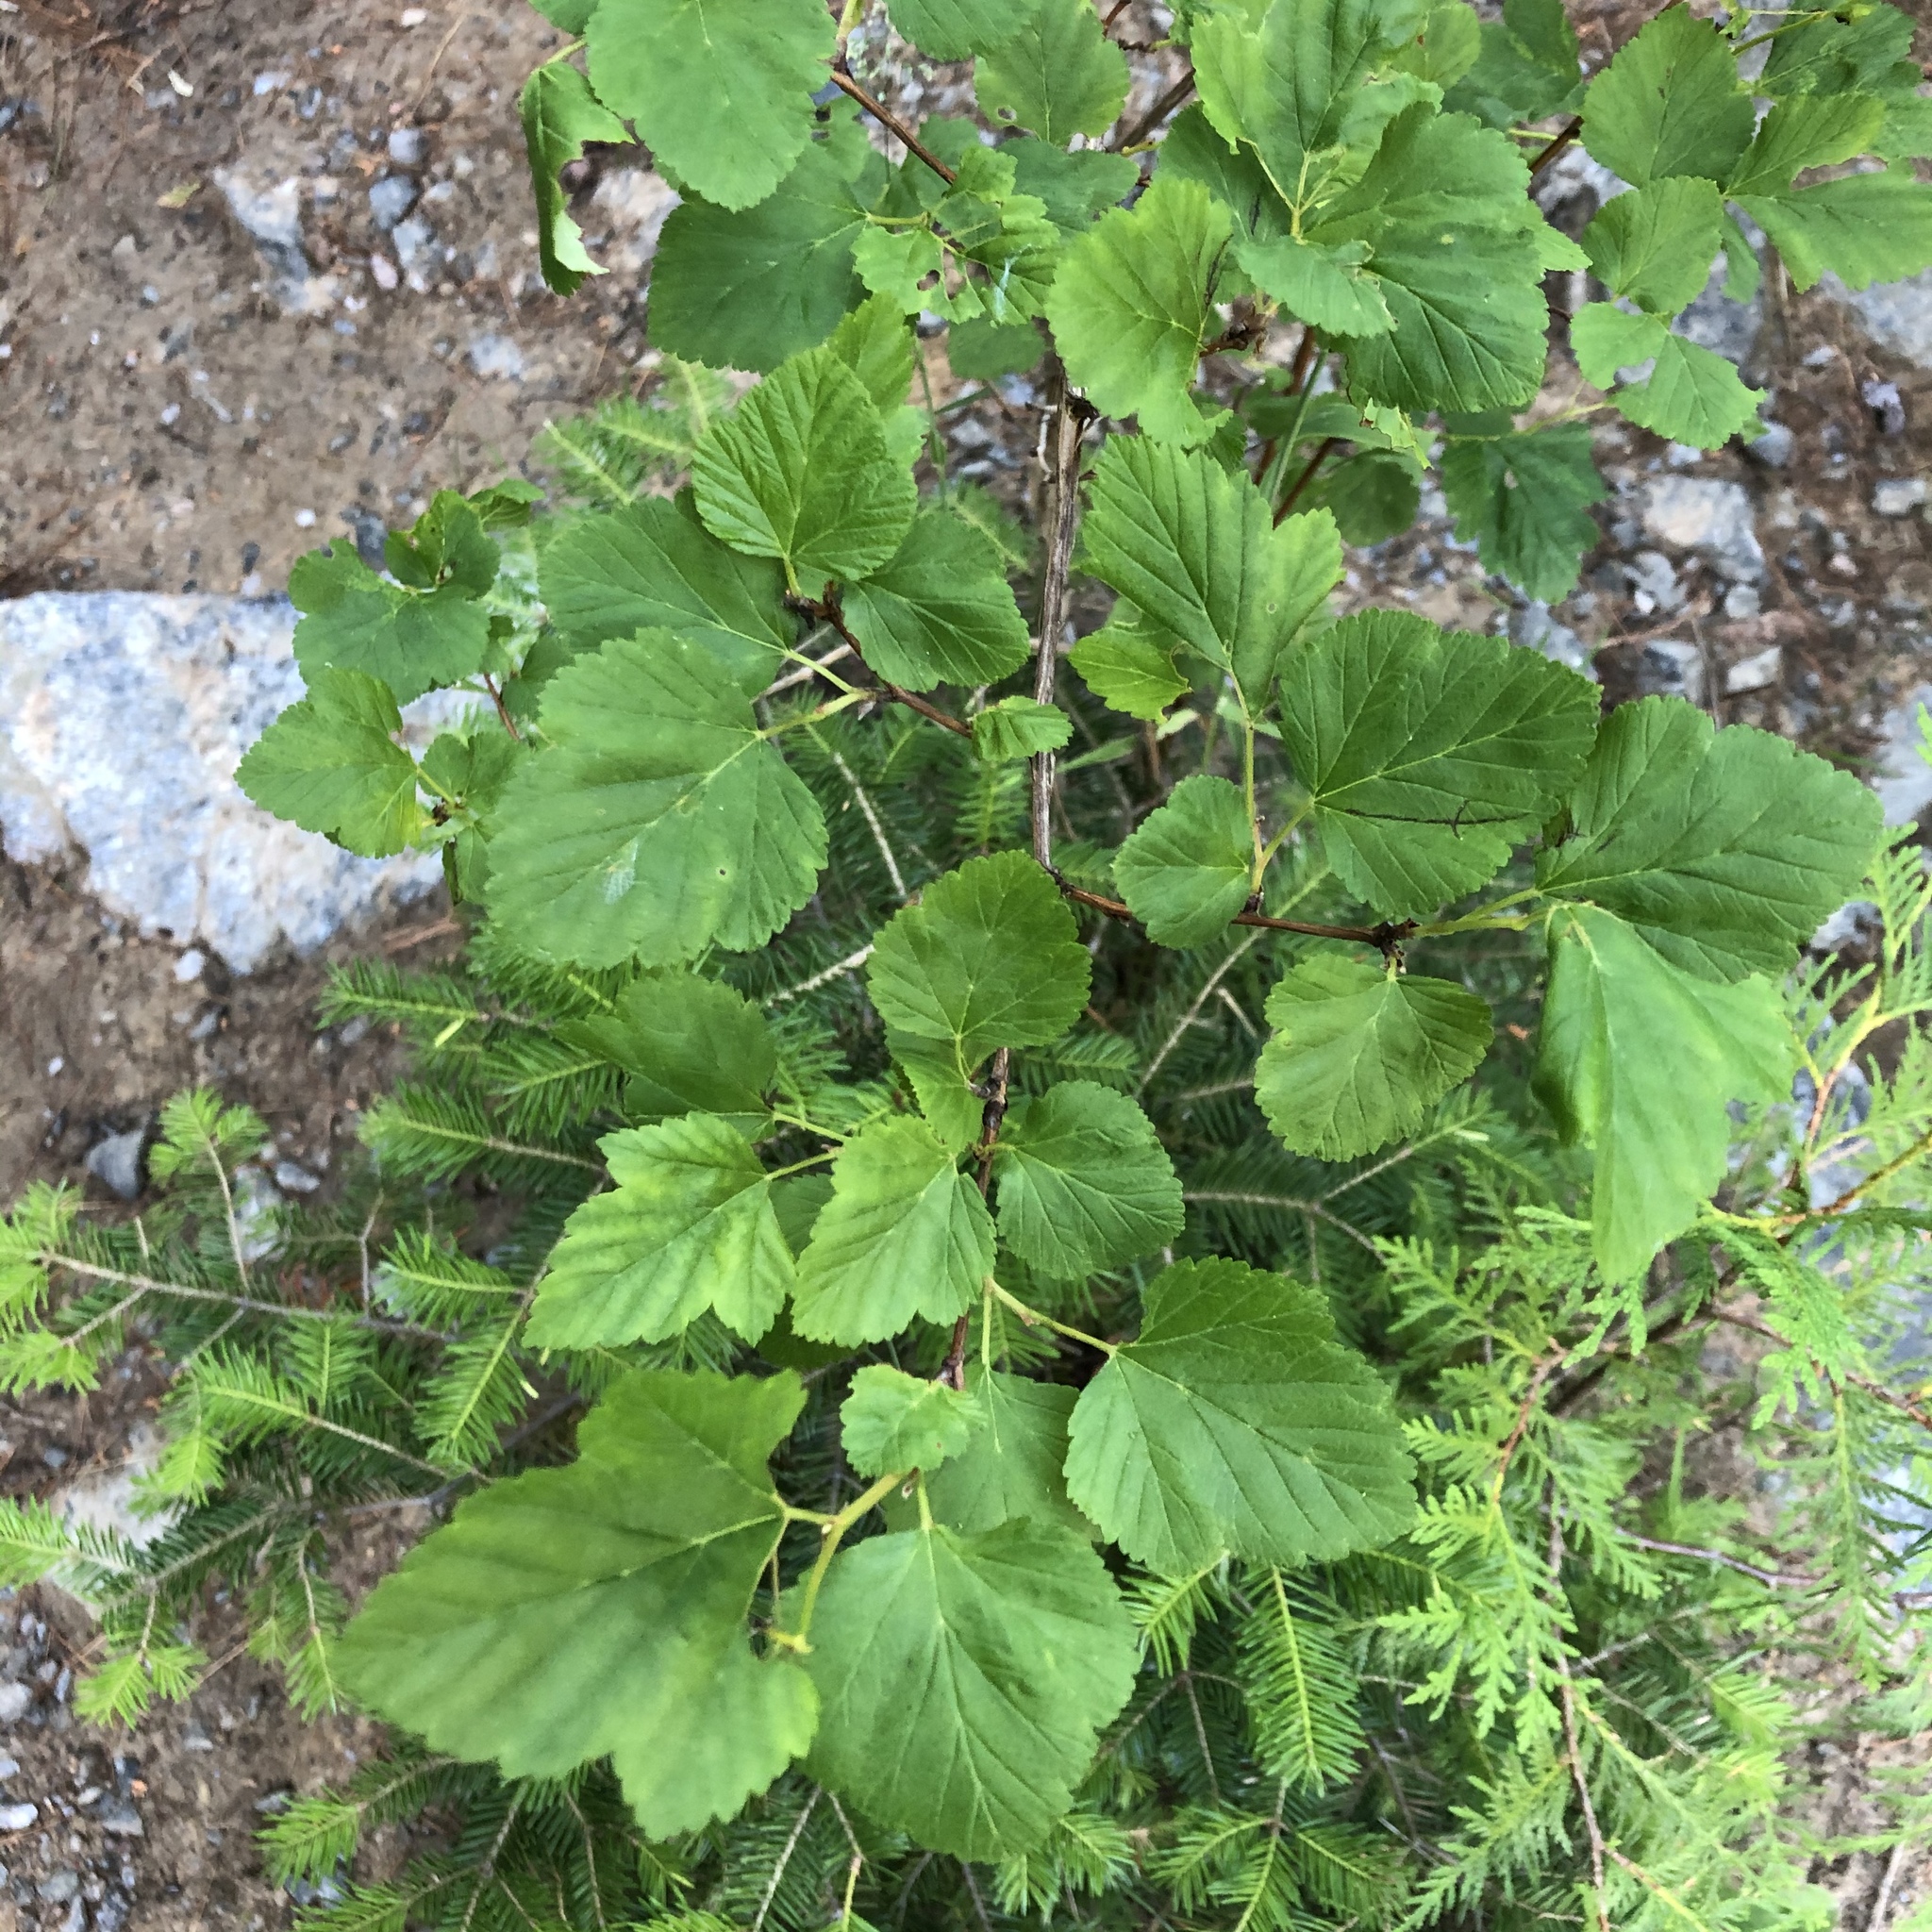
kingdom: Plantae
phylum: Tracheophyta
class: Magnoliopsida
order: Rosales
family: Rosaceae
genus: Physocarpus
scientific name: Physocarpus opulifolius
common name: Ninebark
